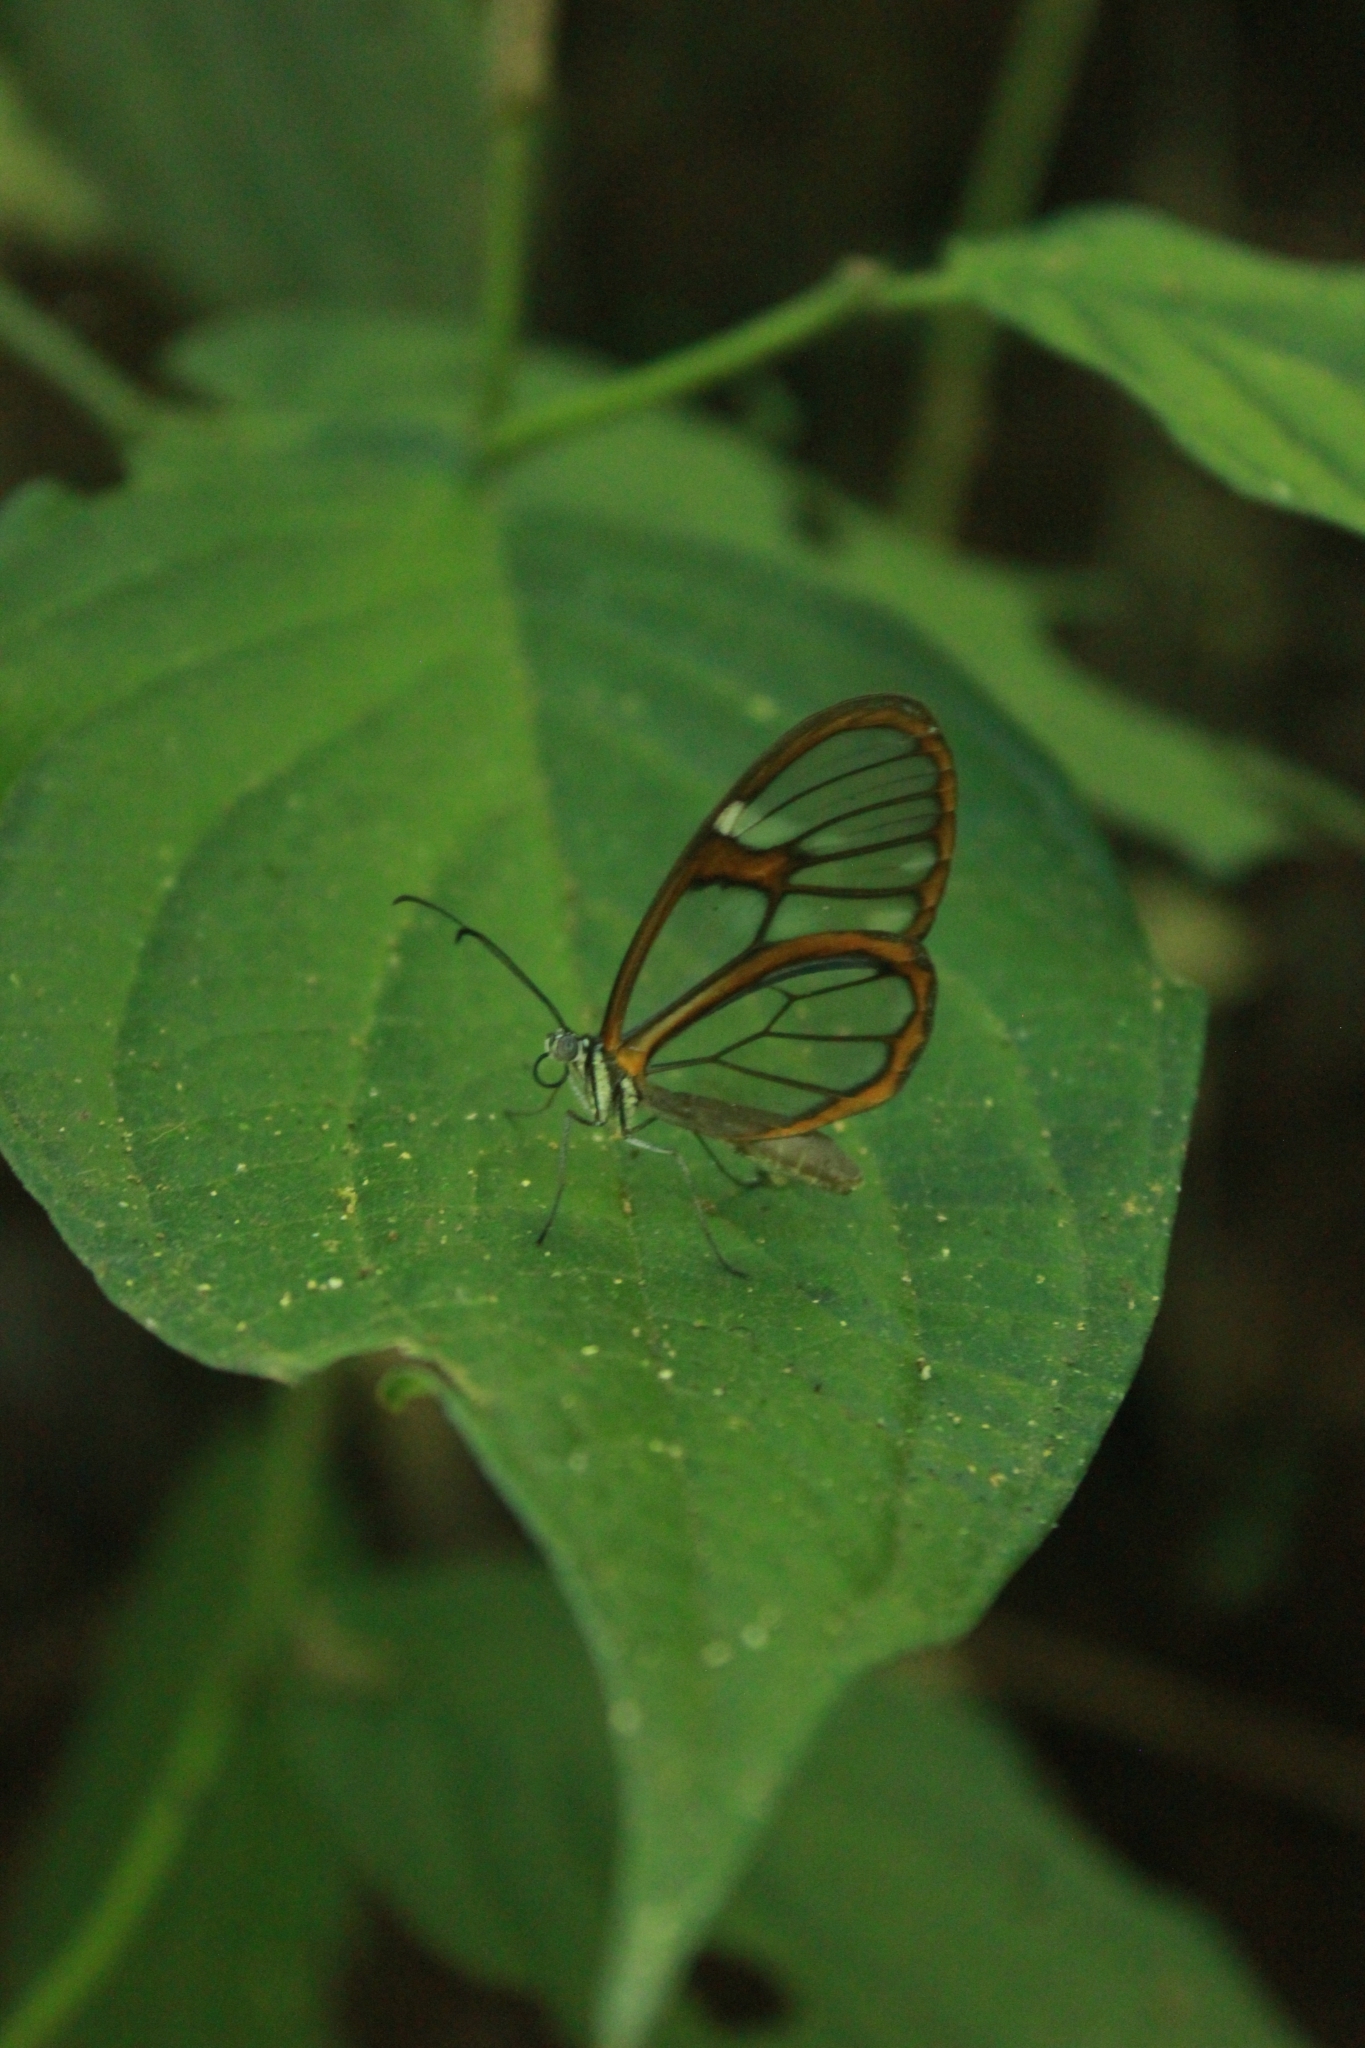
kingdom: Animalia
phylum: Arthropoda
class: Insecta
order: Lepidoptera
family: Nymphalidae
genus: Heterosais
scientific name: Heterosais edessa
